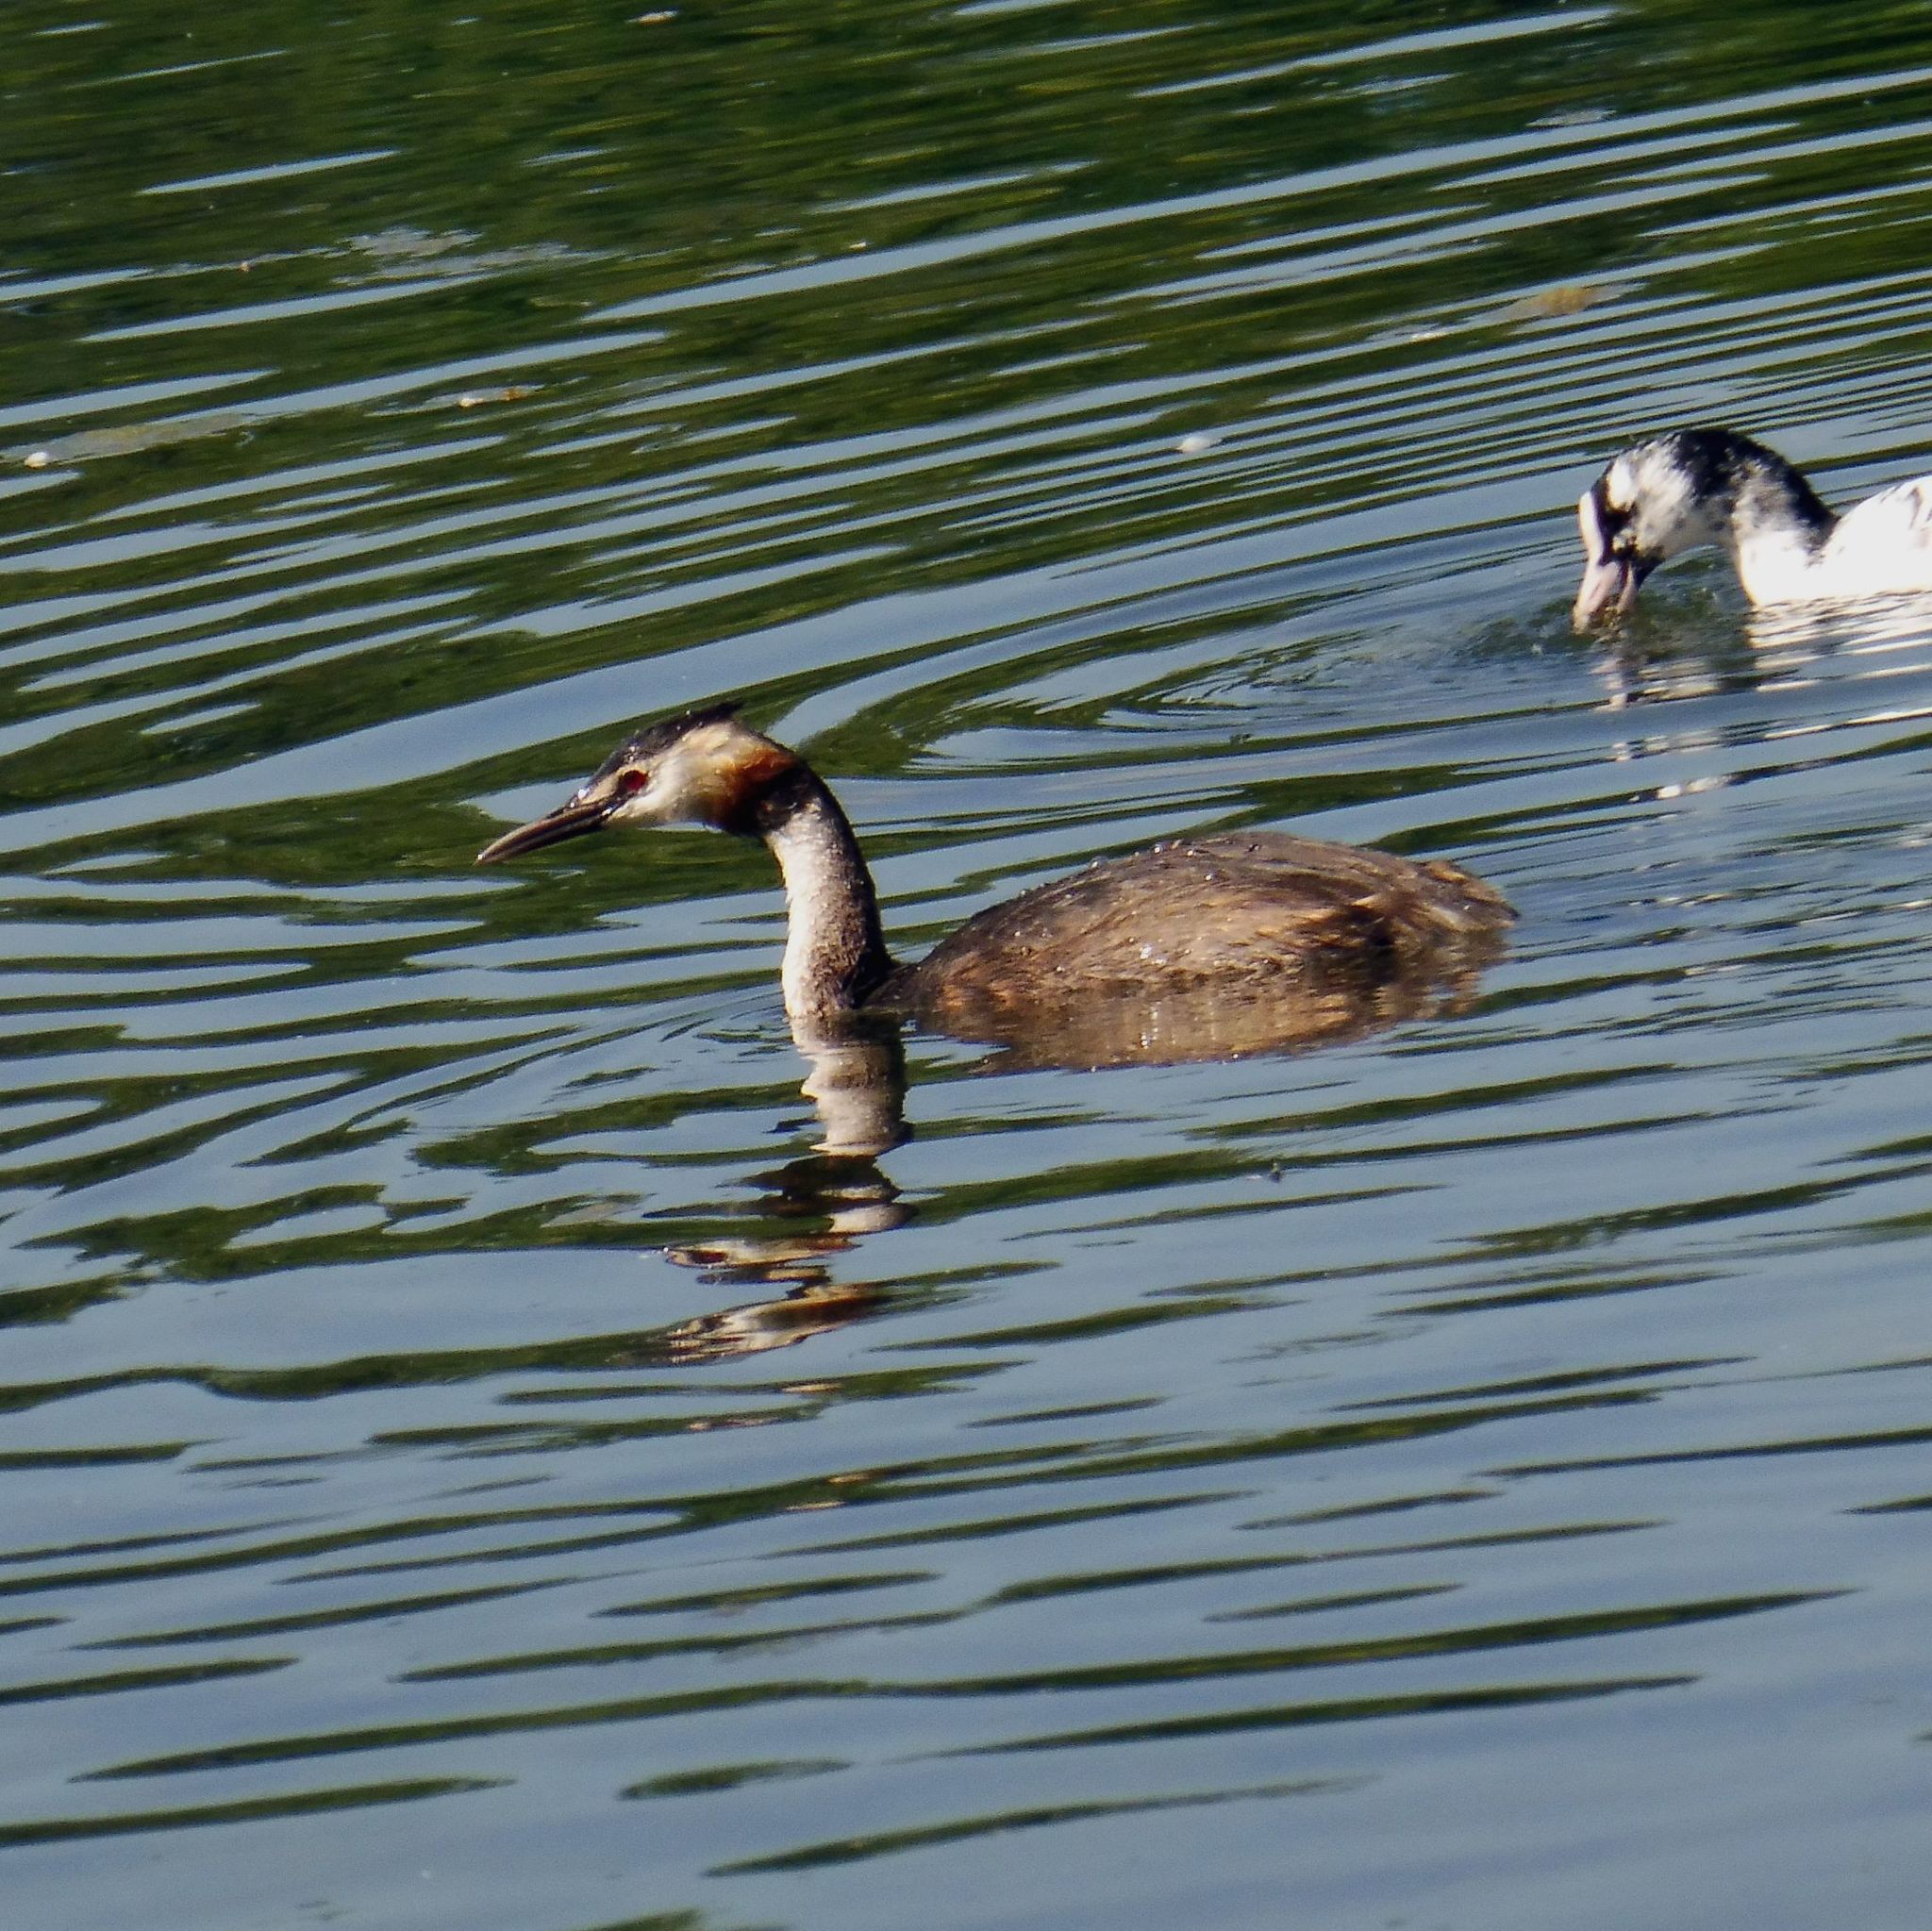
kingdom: Animalia
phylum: Chordata
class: Aves
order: Podicipediformes
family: Podicipedidae
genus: Podiceps
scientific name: Podiceps cristatus
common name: Great crested grebe
